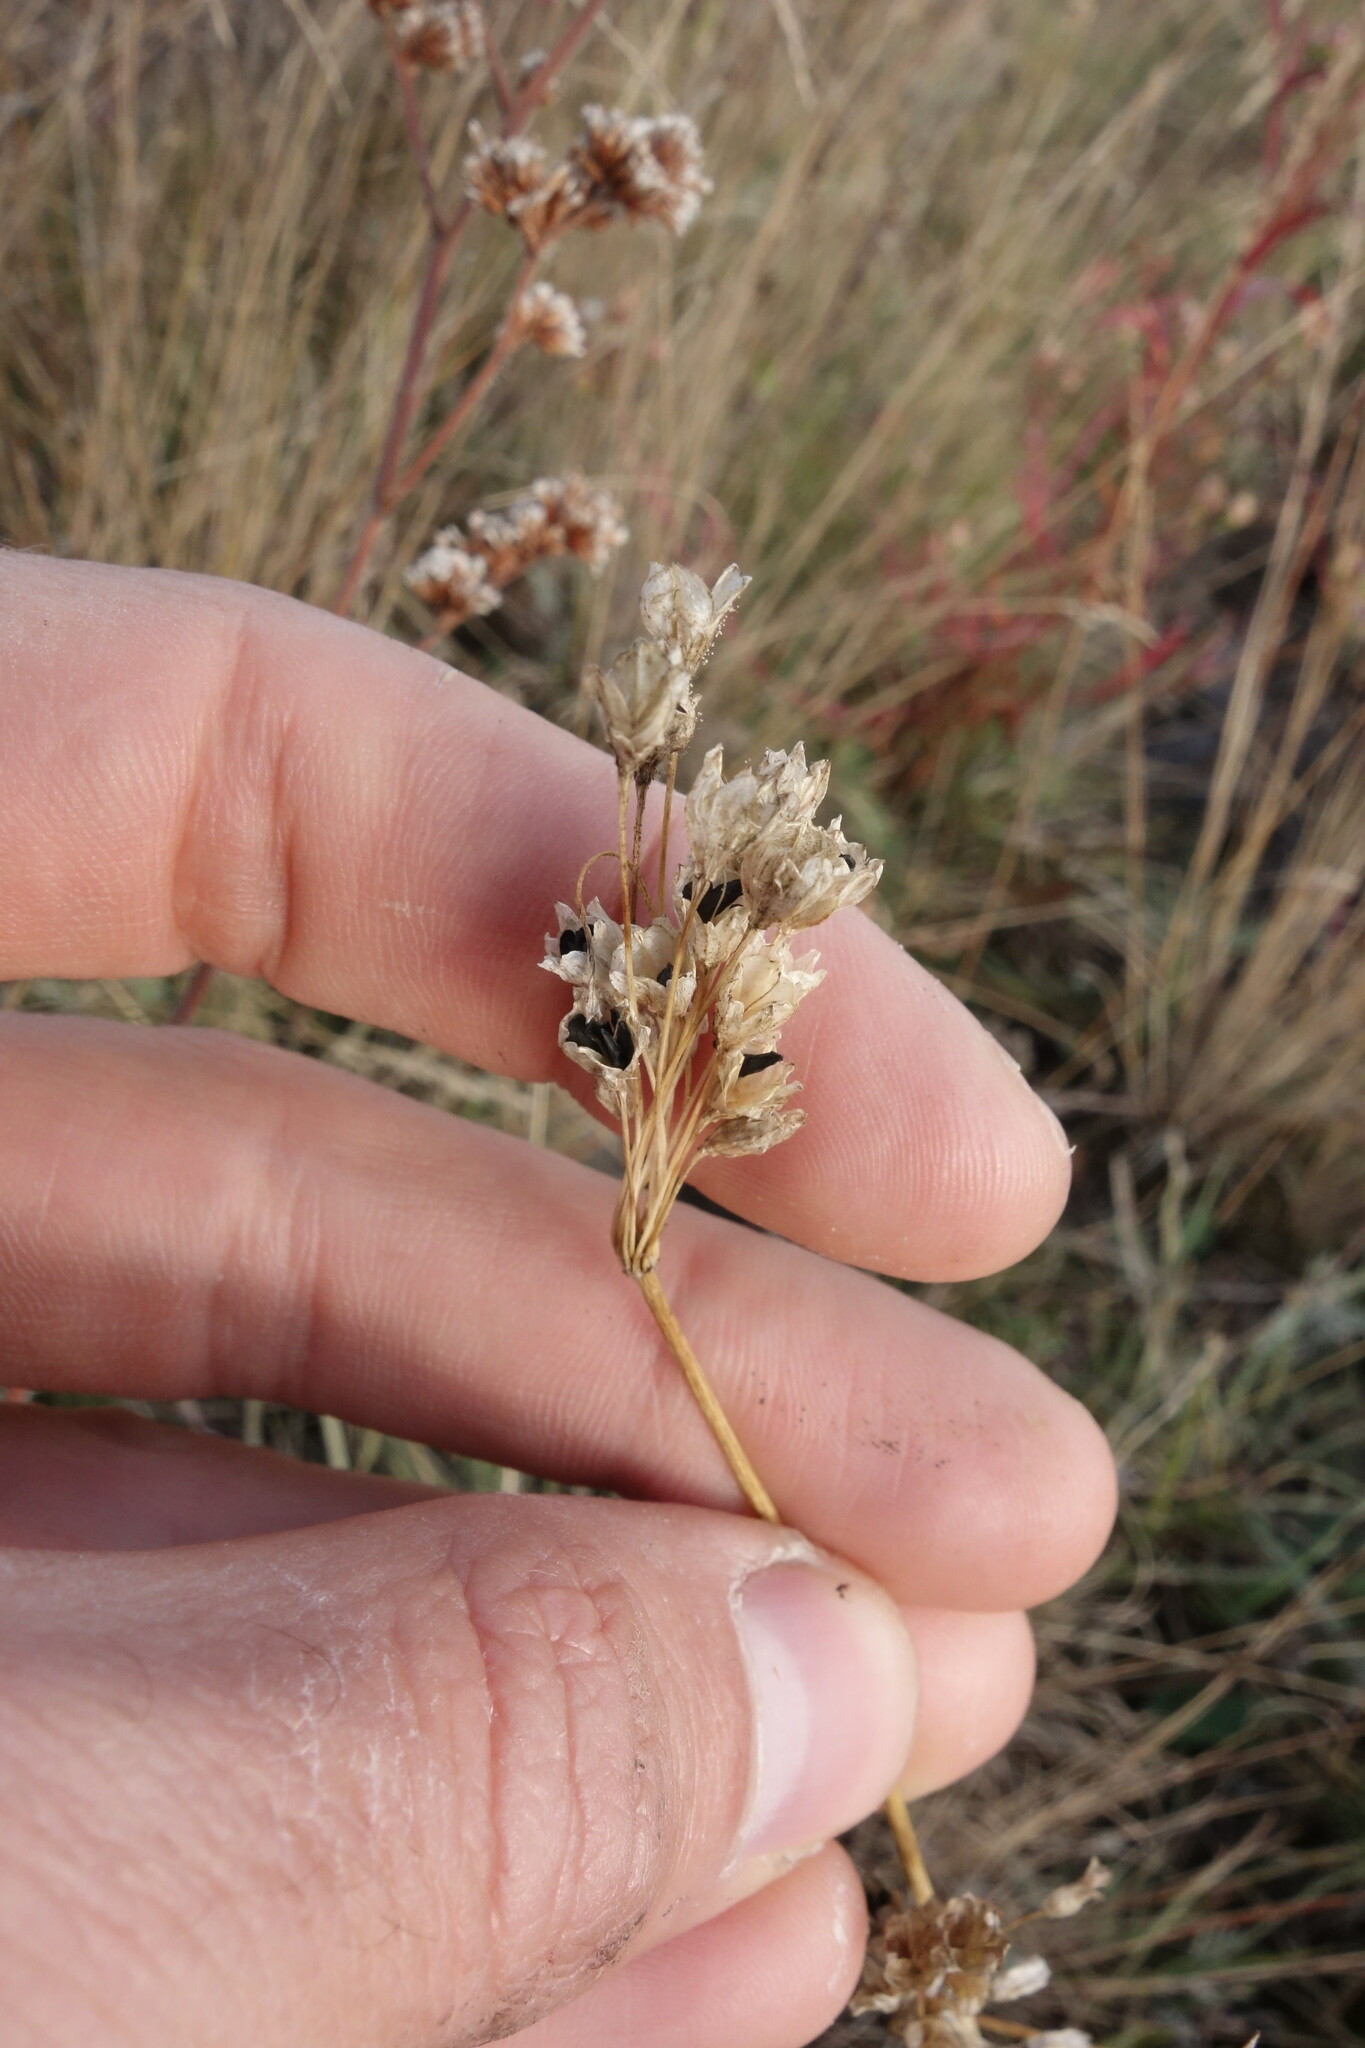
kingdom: Plantae
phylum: Tracheophyta
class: Liliopsida
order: Asparagales
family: Amaryllidaceae
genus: Allium
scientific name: Allium praescissum
